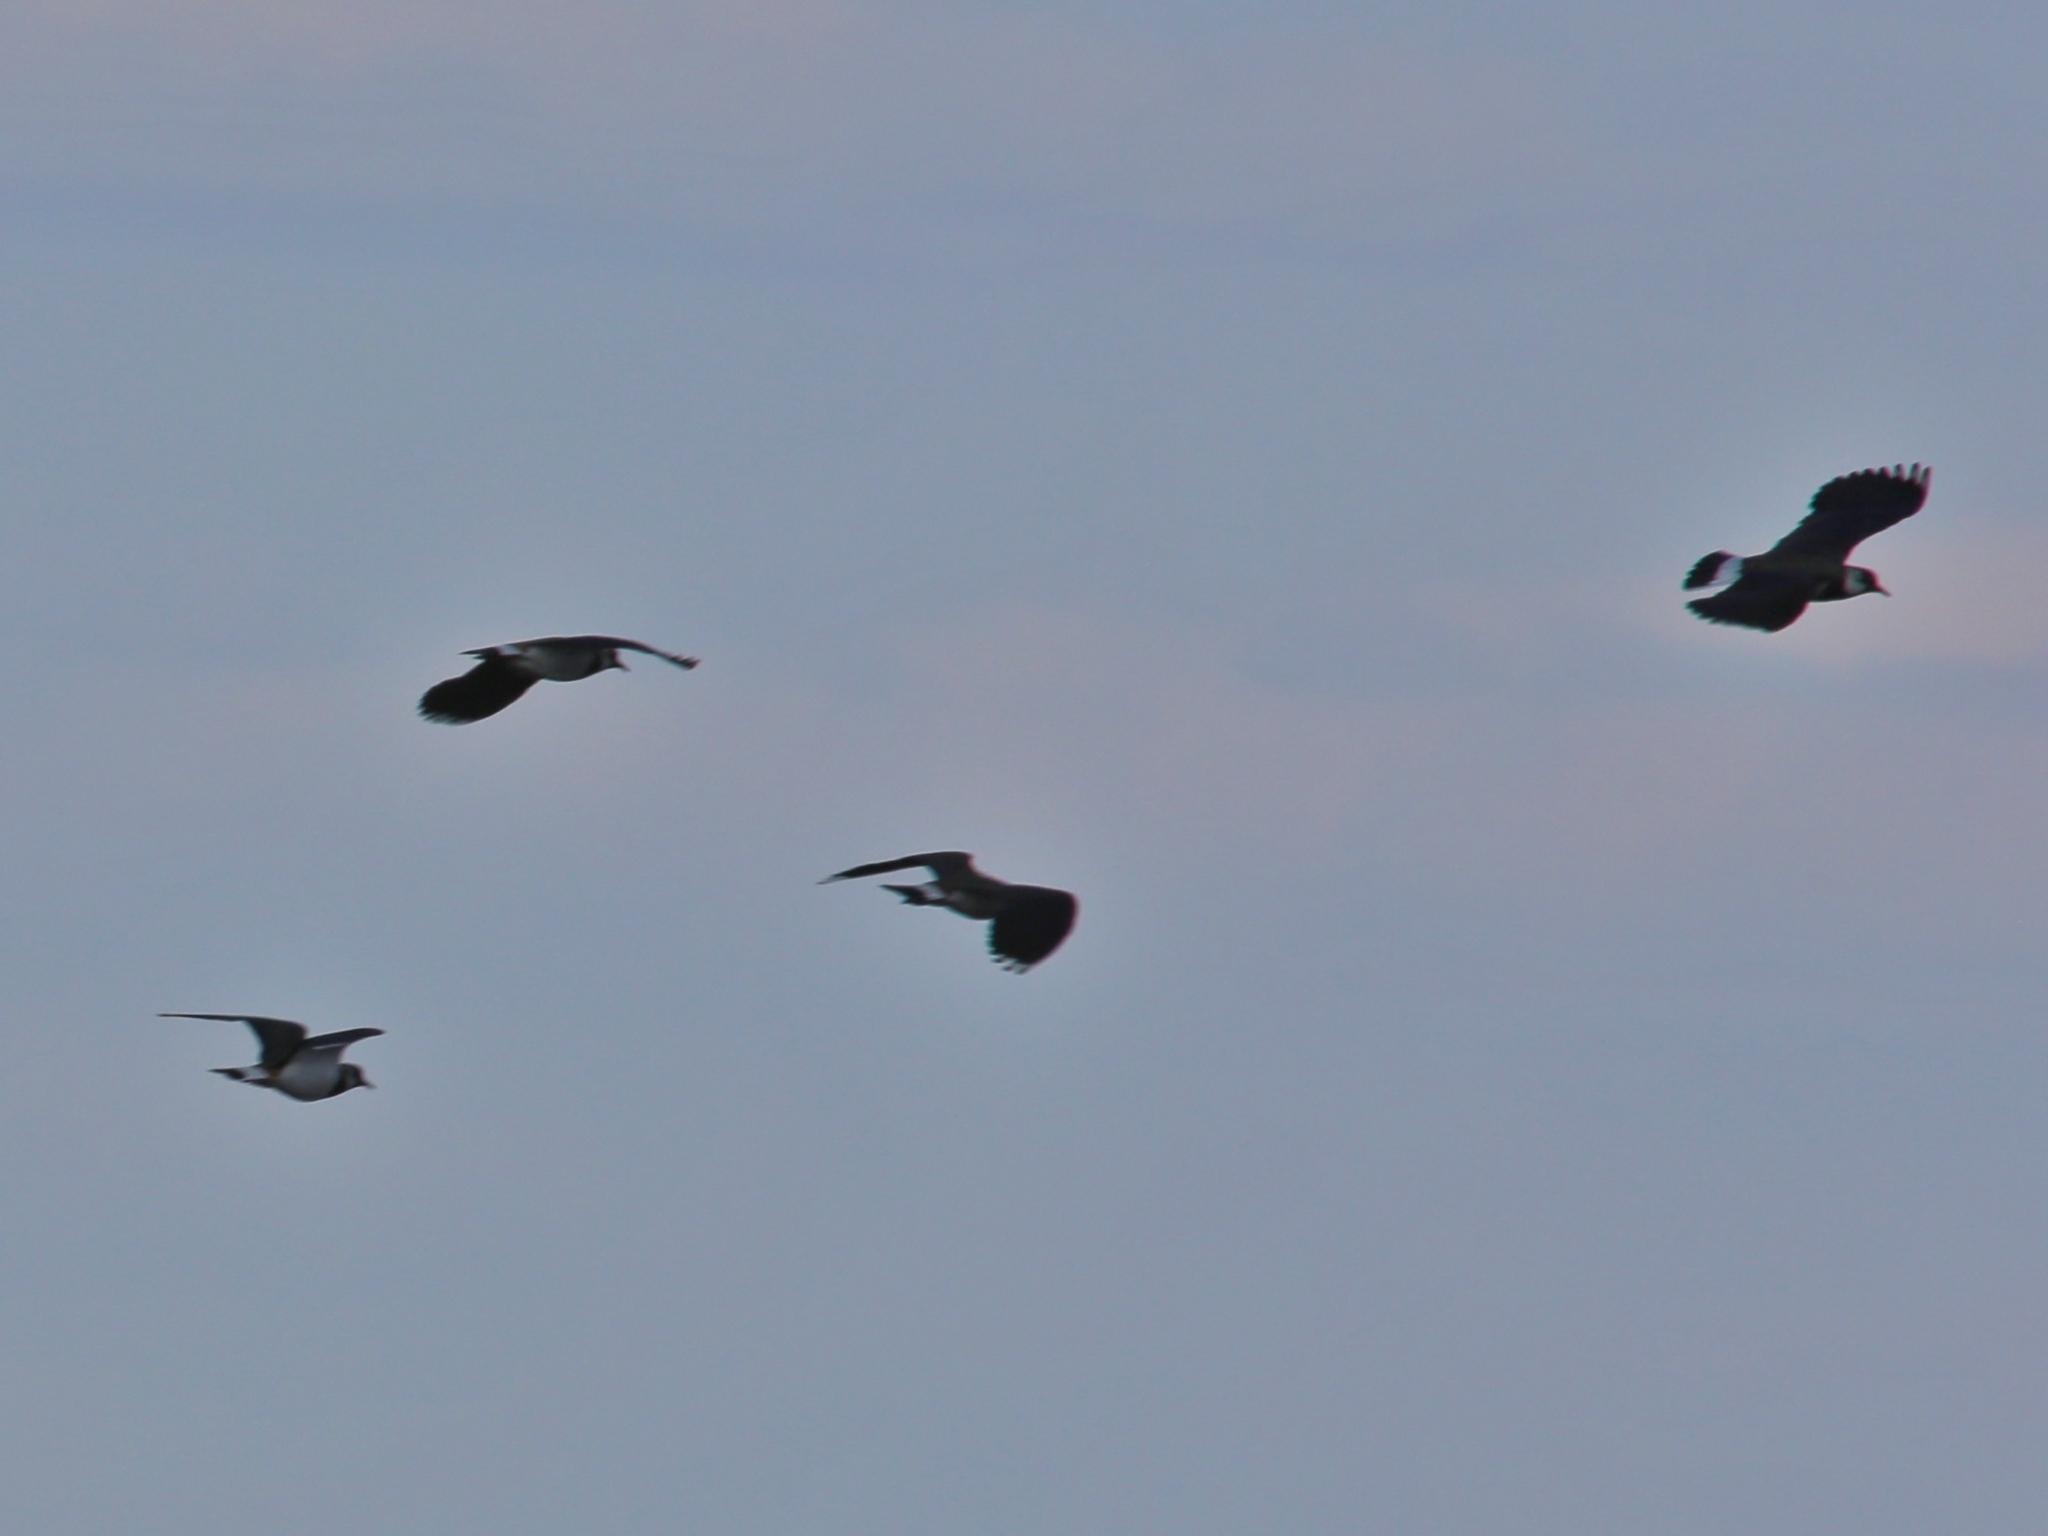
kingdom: Animalia
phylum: Chordata
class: Aves
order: Charadriiformes
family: Charadriidae
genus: Vanellus
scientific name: Vanellus vanellus
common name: Northern lapwing
